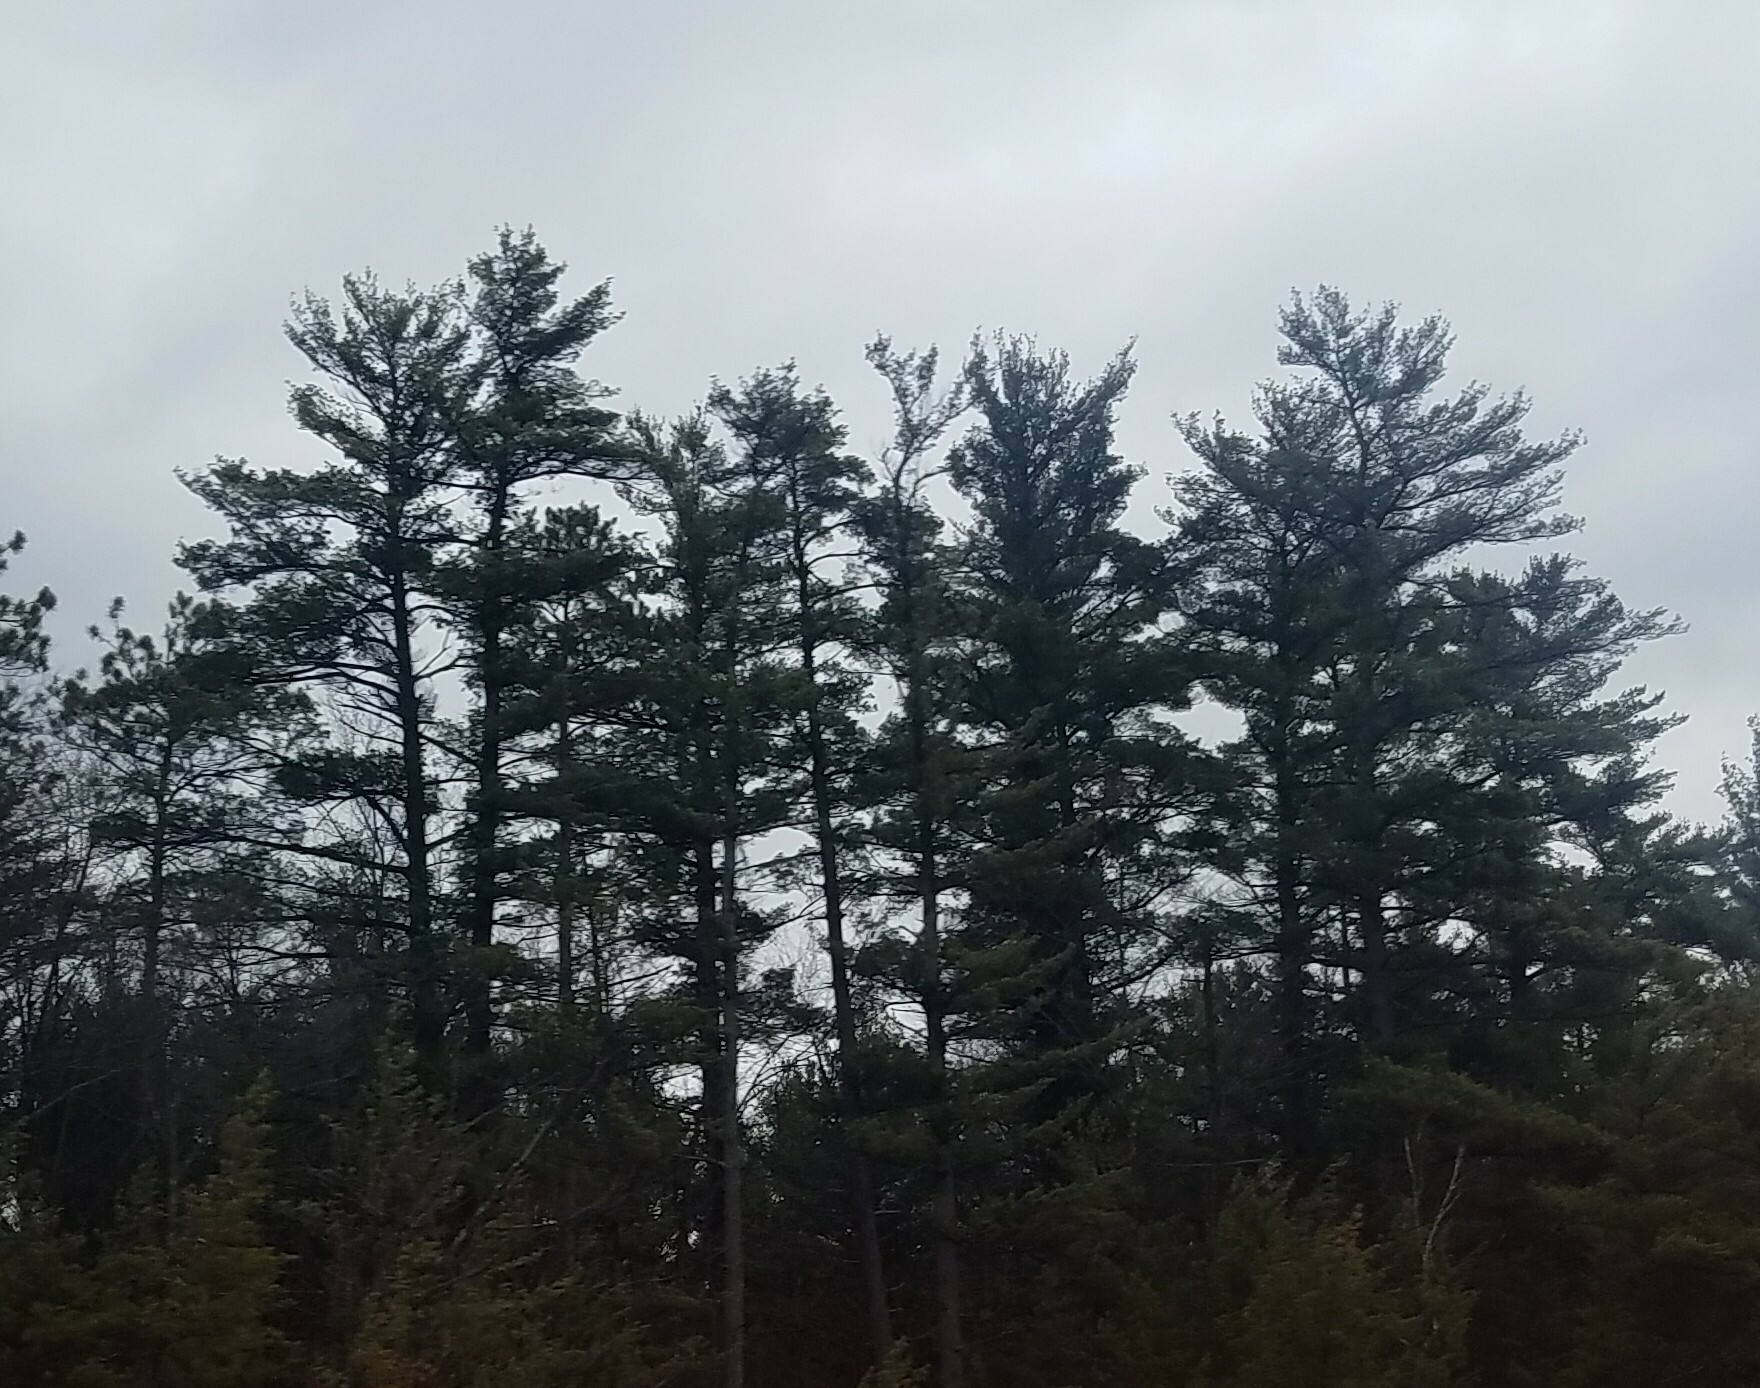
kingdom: Plantae
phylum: Tracheophyta
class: Pinopsida
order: Pinales
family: Pinaceae
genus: Pinus
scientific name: Pinus strobus
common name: Weymouth pine
